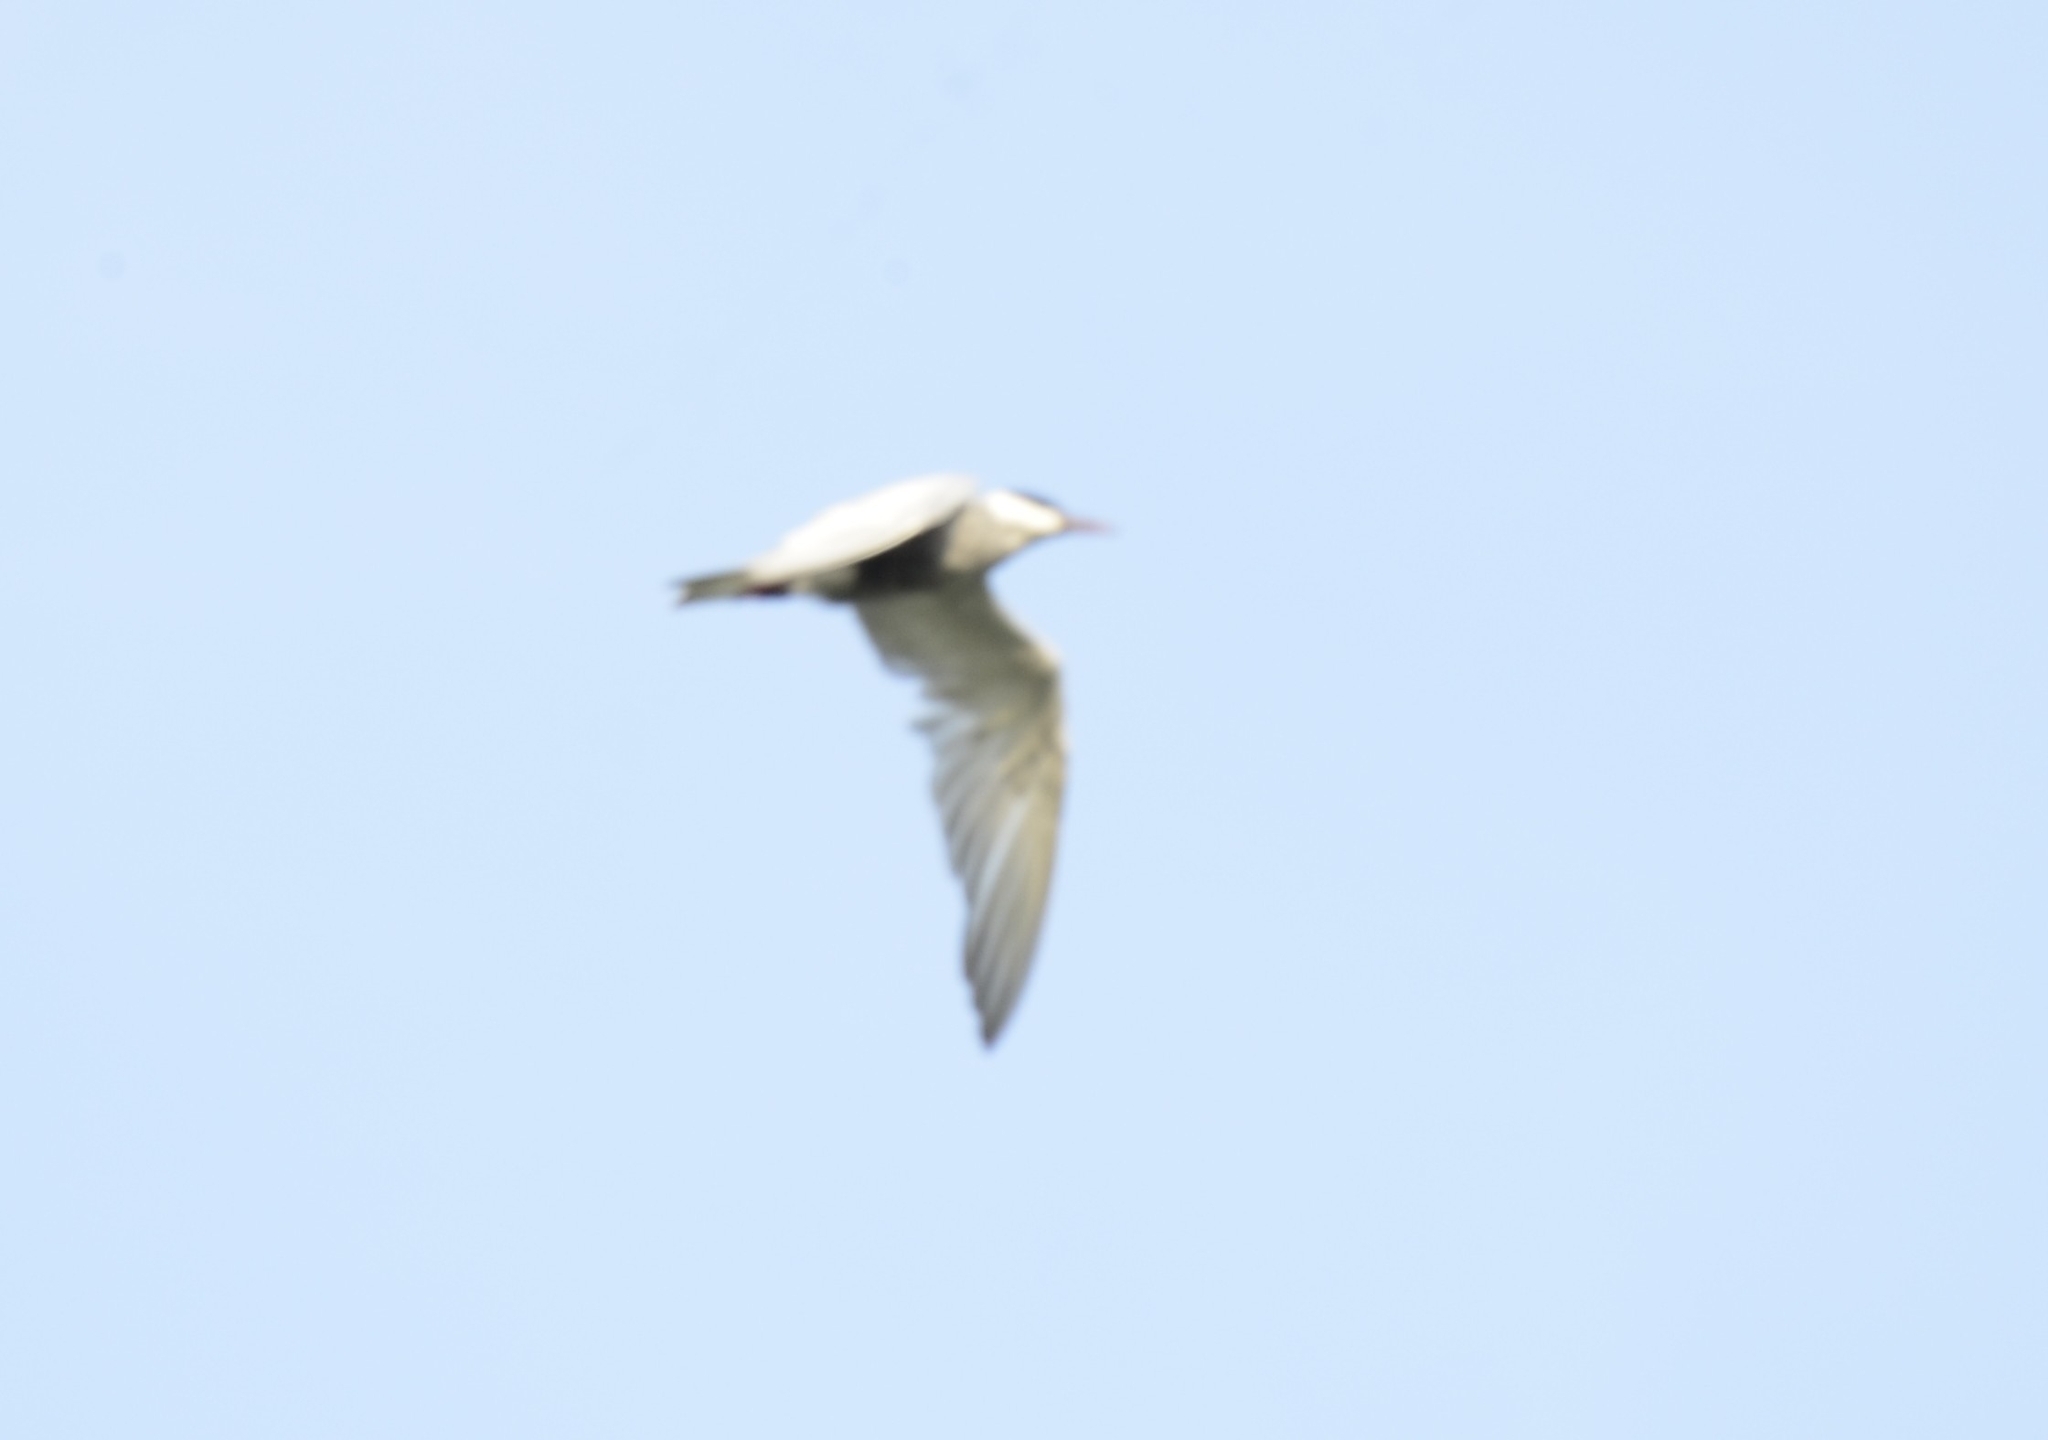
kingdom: Animalia
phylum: Chordata
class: Aves
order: Charadriiformes
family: Laridae
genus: Chlidonias
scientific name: Chlidonias hybrida
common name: Whiskered tern
